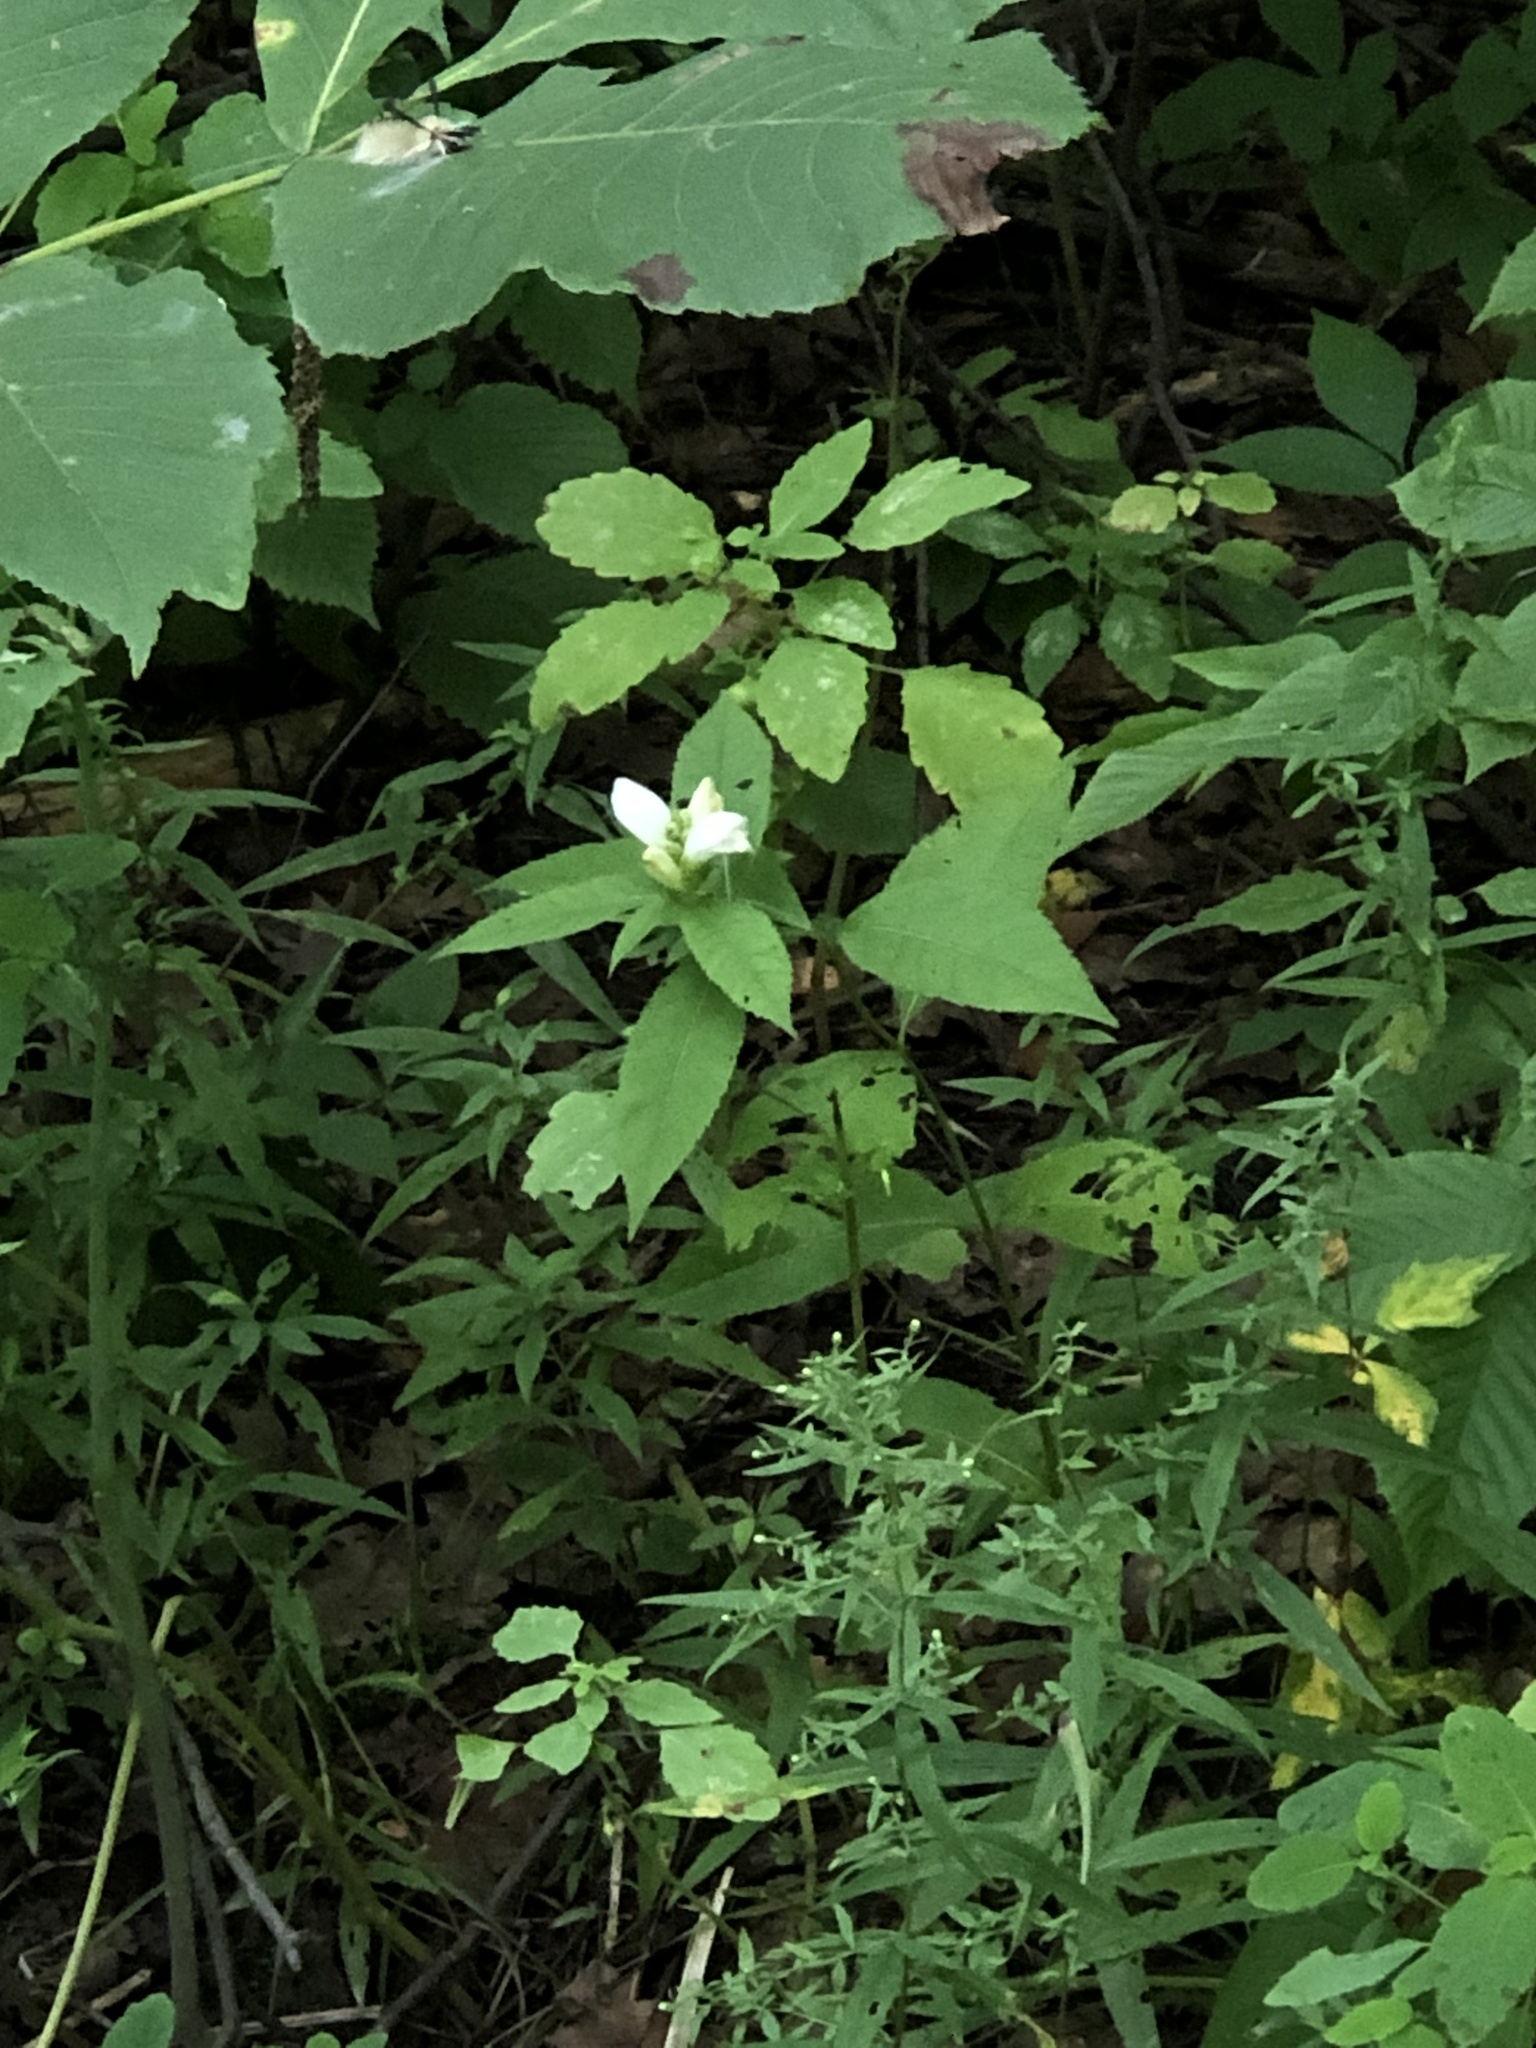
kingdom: Plantae
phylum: Tracheophyta
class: Magnoliopsida
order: Lamiales
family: Plantaginaceae
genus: Chelone
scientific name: Chelone glabra
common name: Snakehead
